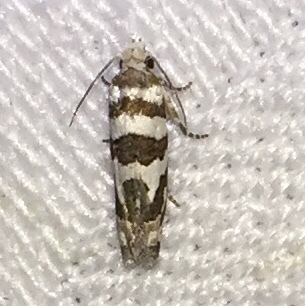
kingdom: Animalia
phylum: Arthropoda
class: Insecta
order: Lepidoptera
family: Tortricidae
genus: Pelochrista
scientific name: Pelochrista robinsonana
